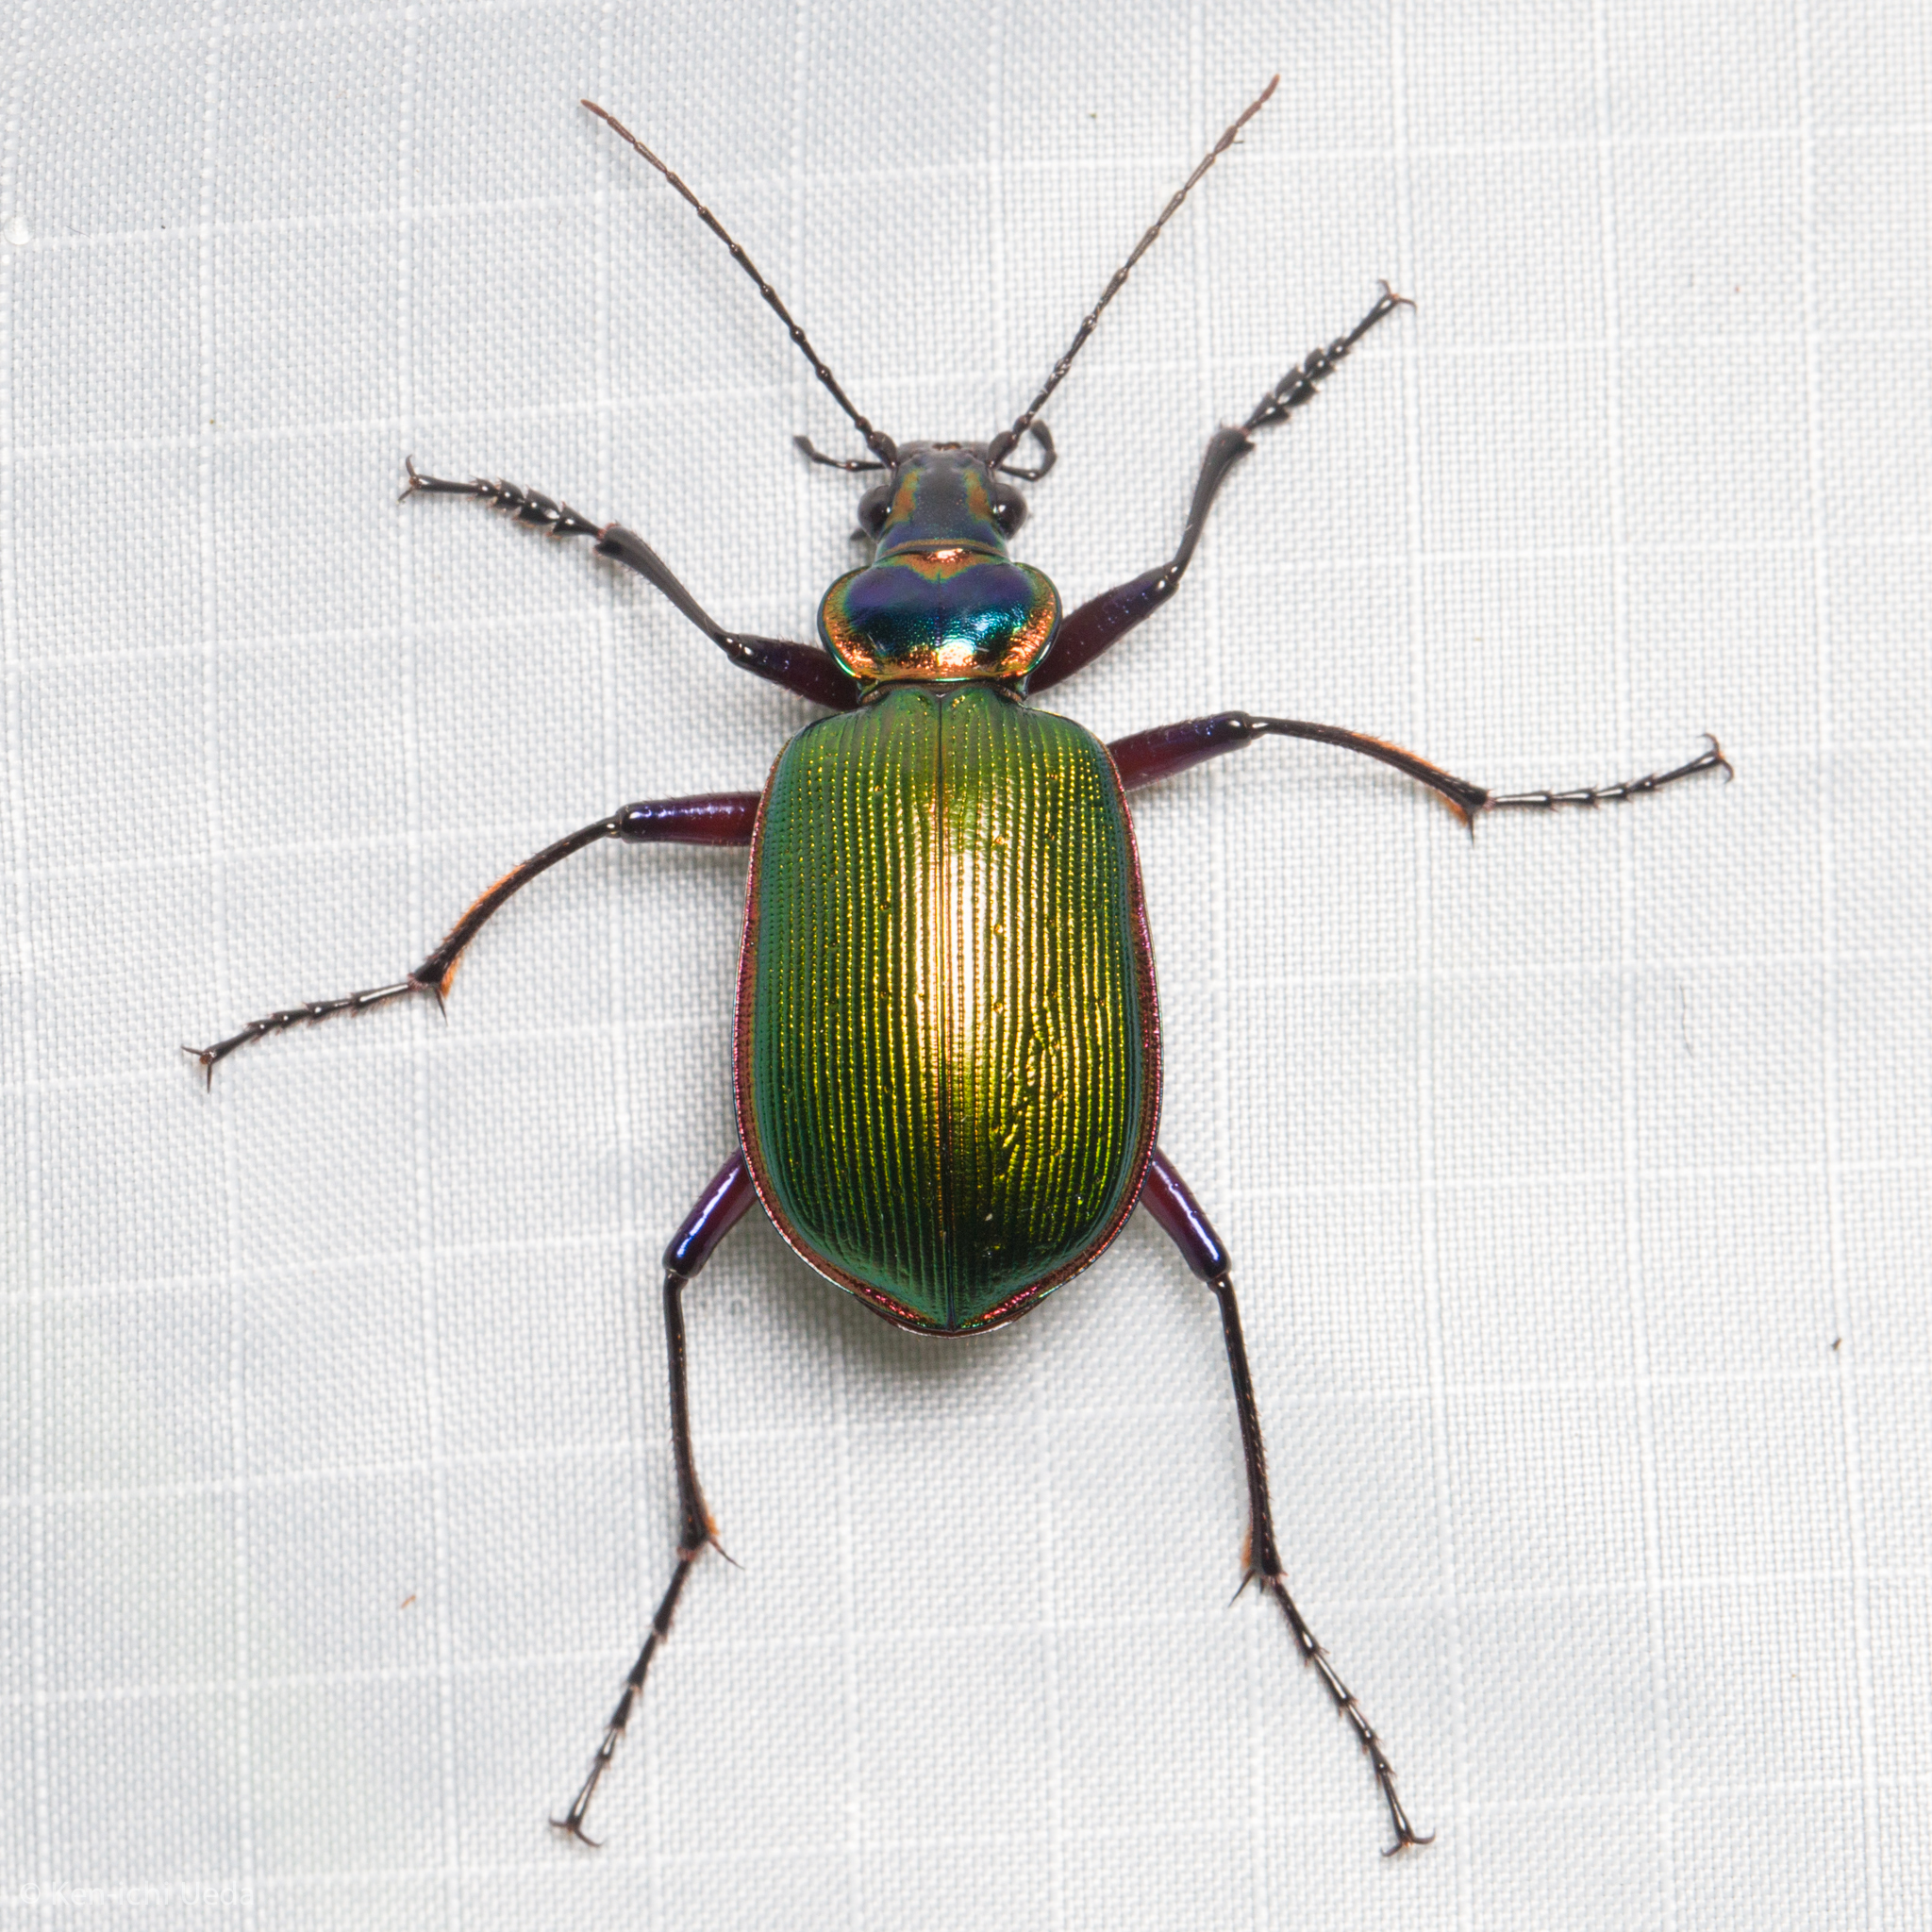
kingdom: Animalia
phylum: Arthropoda
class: Insecta
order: Coleoptera
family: Carabidae
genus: Calosoma
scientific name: Calosoma scrutator
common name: Fiery searcher beetle
